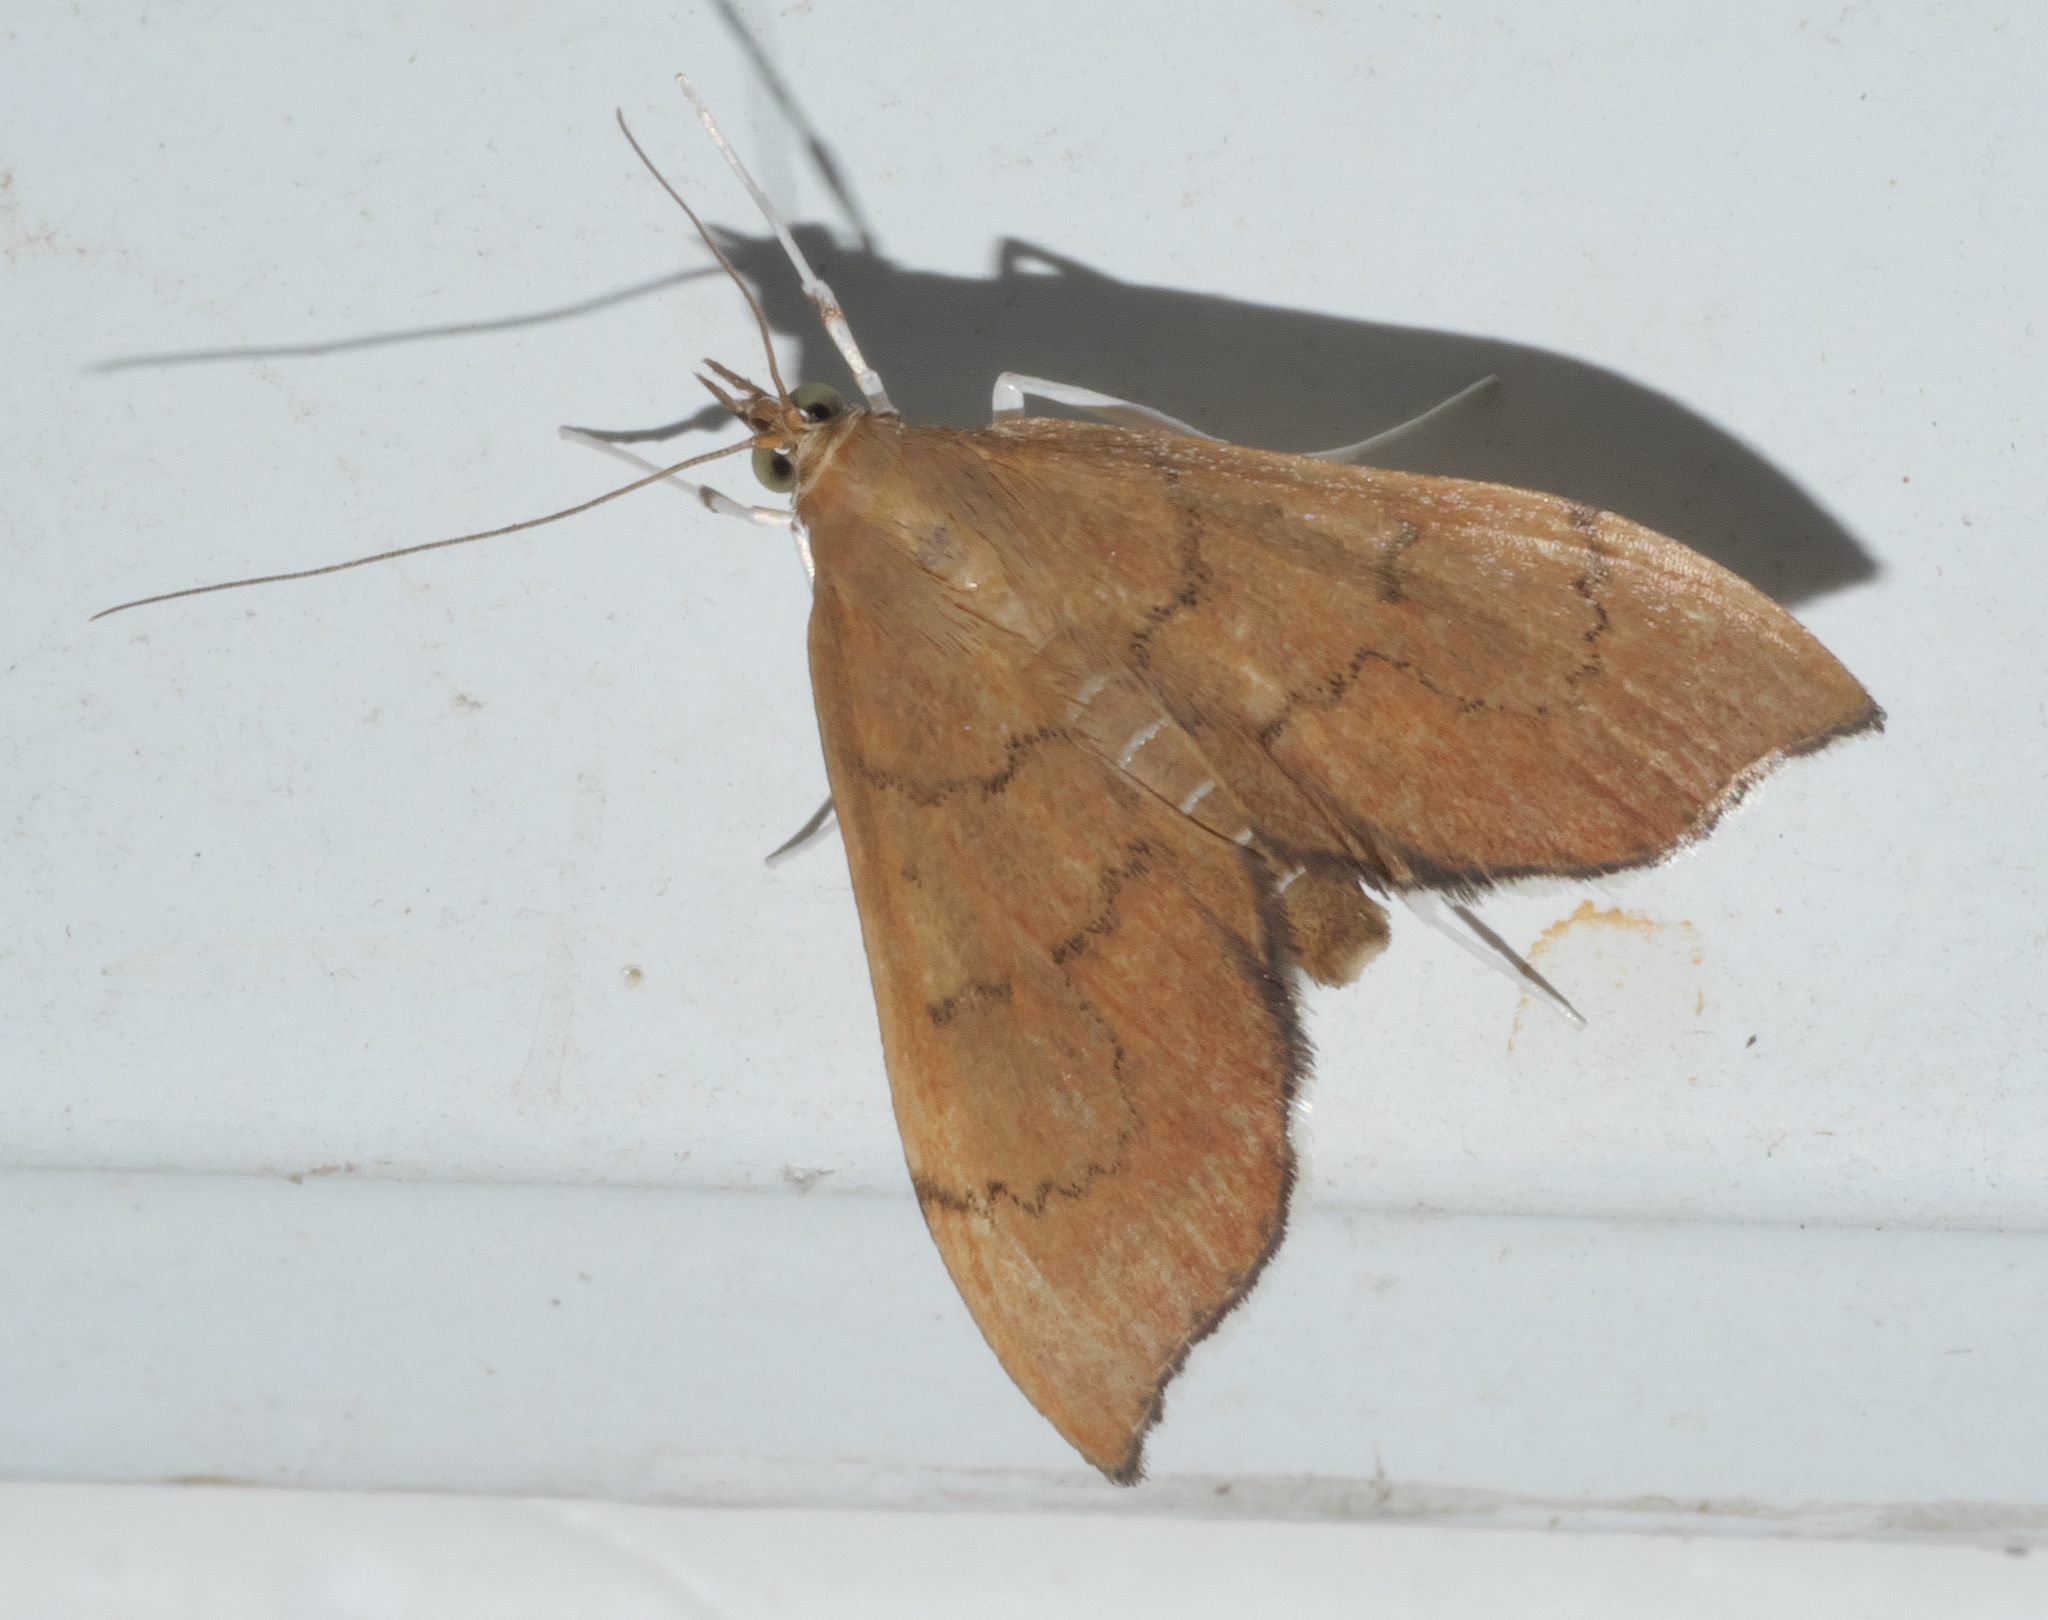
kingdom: Animalia
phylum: Arthropoda
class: Insecta
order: Lepidoptera
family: Crambidae
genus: Sericoplaga
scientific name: Sericoplaga externalis
